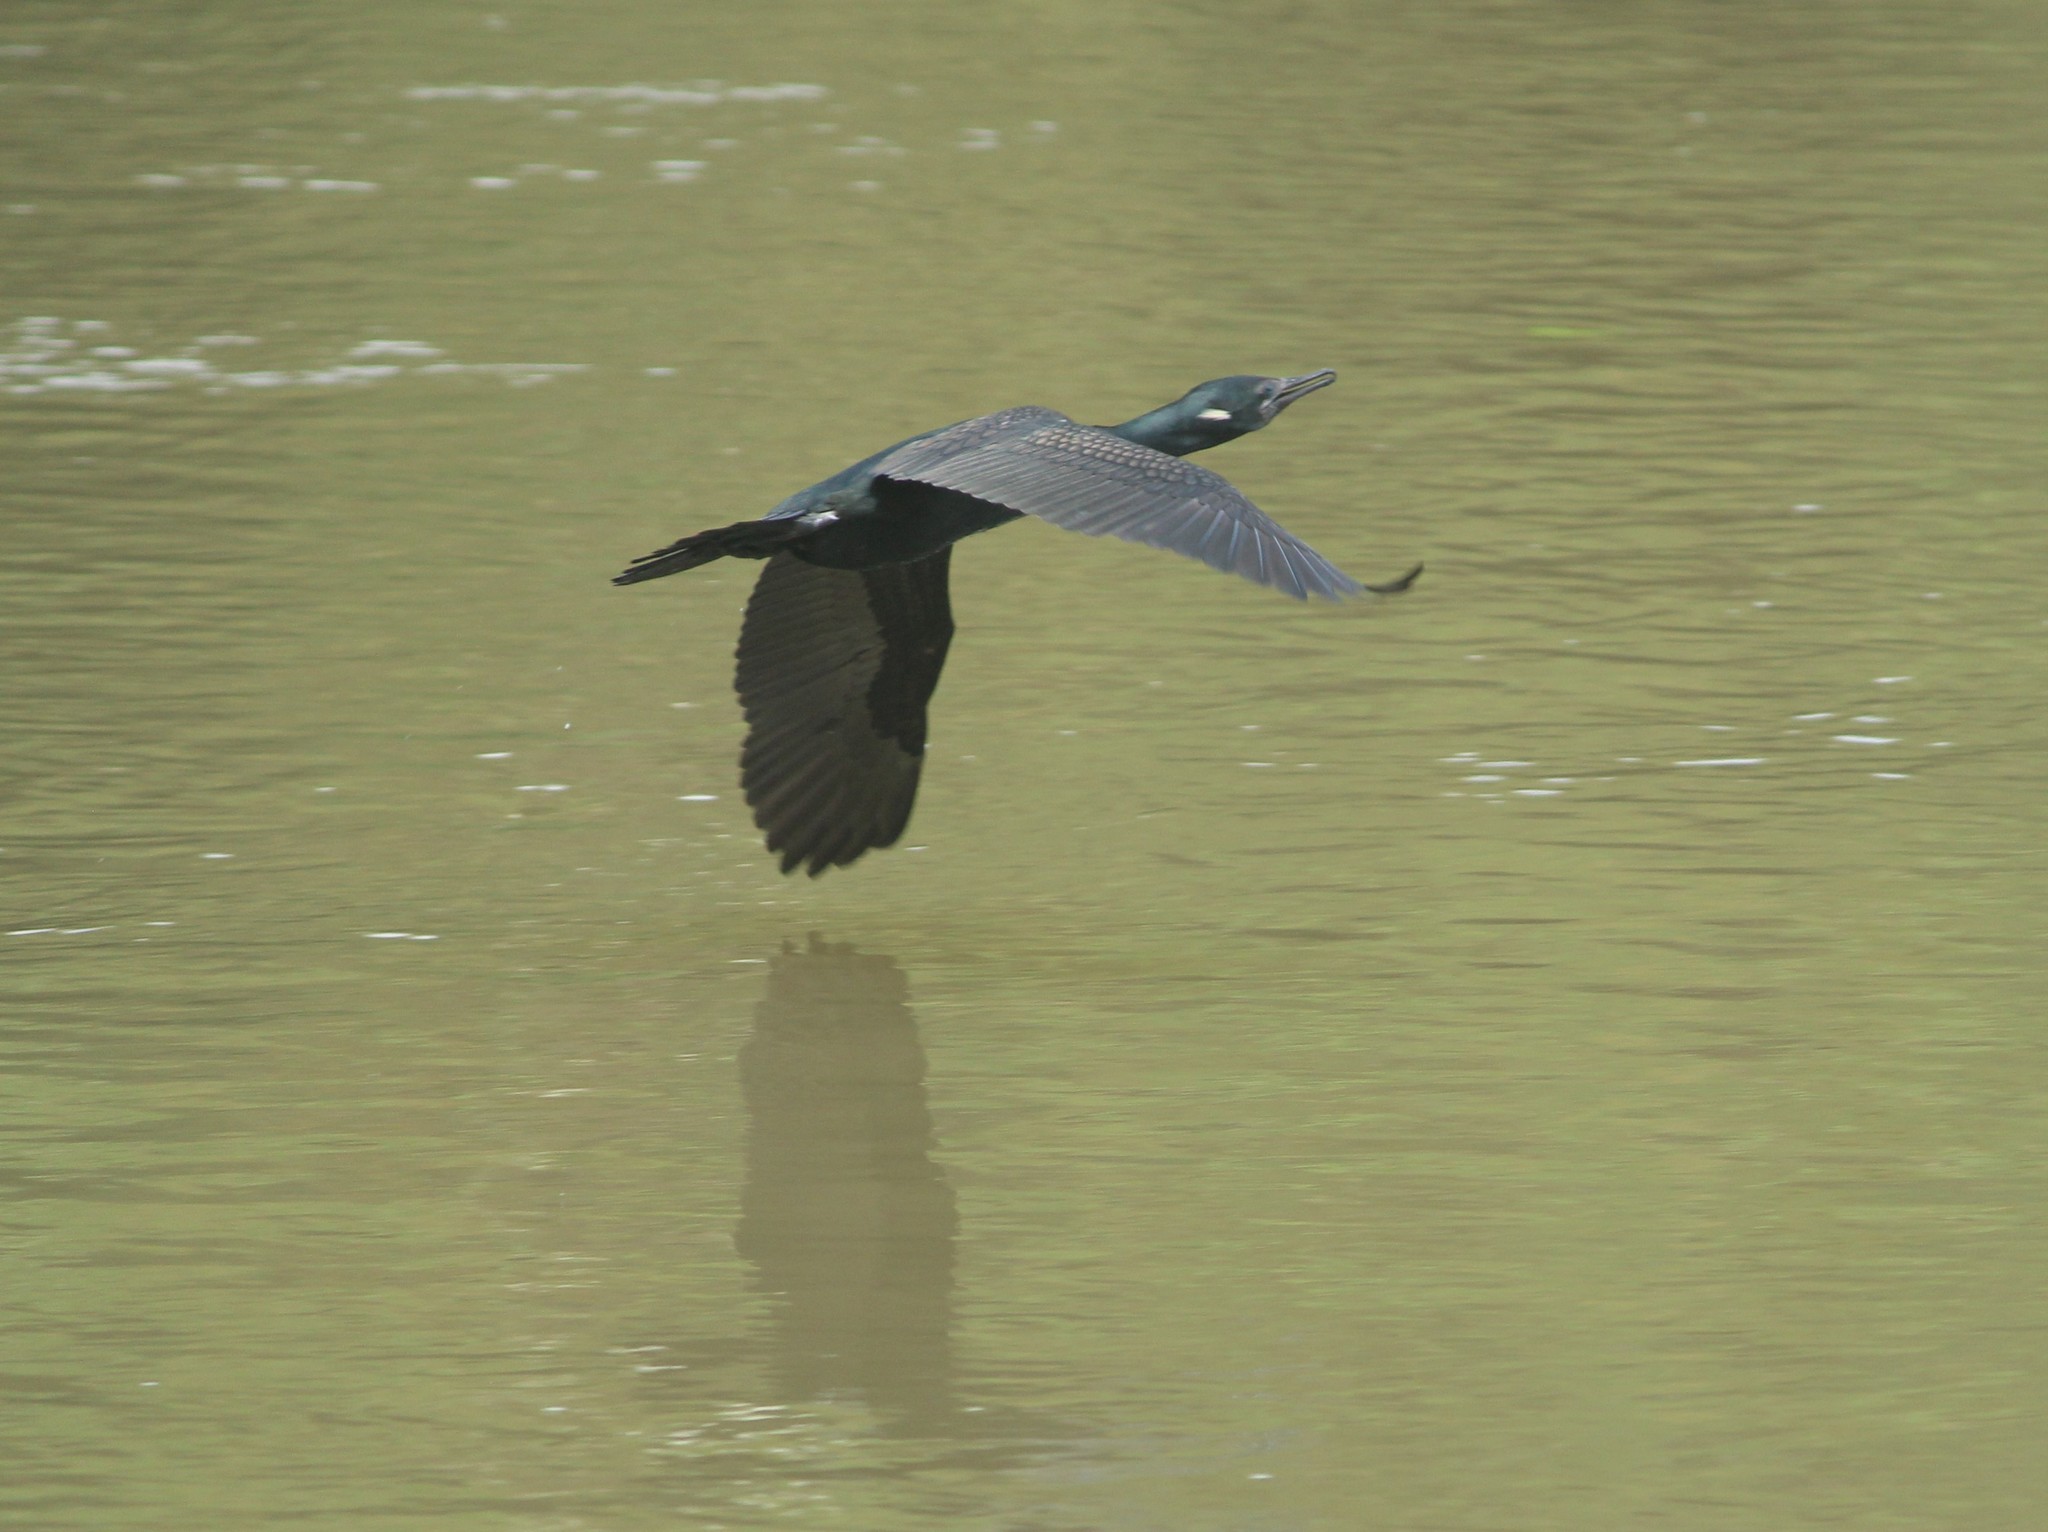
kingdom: Animalia
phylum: Chordata
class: Aves
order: Suliformes
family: Phalacrocoracidae
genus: Phalacrocorax
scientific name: Phalacrocorax fuscicollis
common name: Indian cormorant
